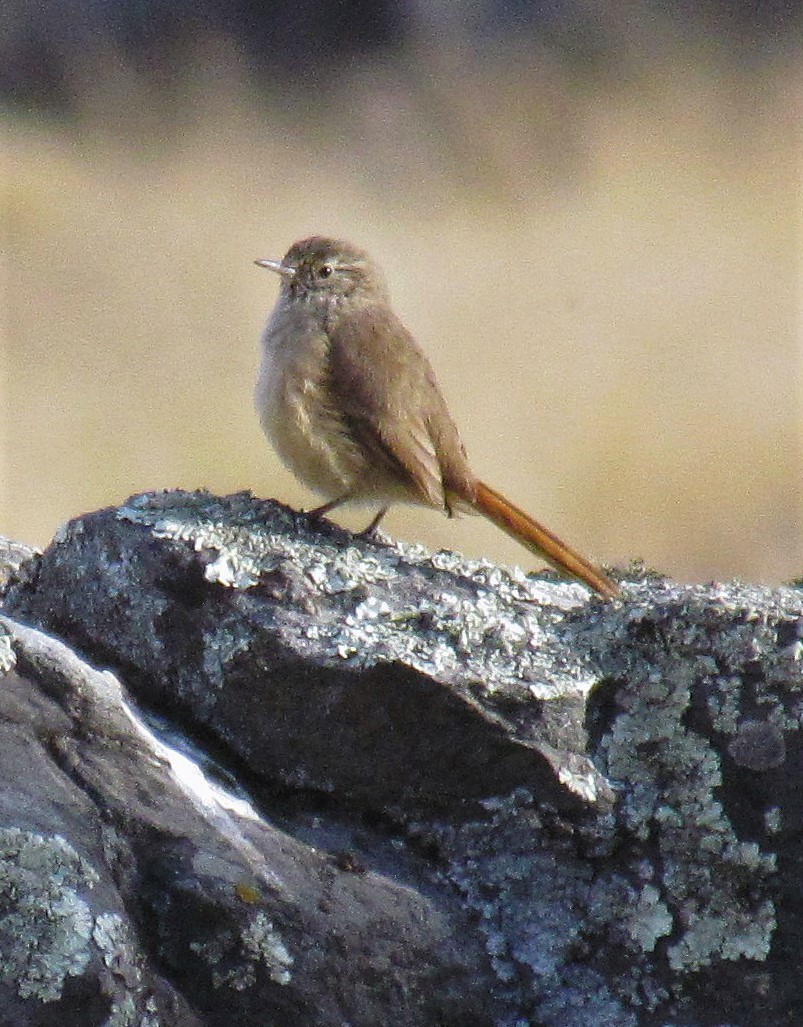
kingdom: Animalia
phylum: Chordata
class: Aves
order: Passeriformes
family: Furnariidae
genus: Asthenes
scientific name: Asthenes modesta
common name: Cordilleran canastero
